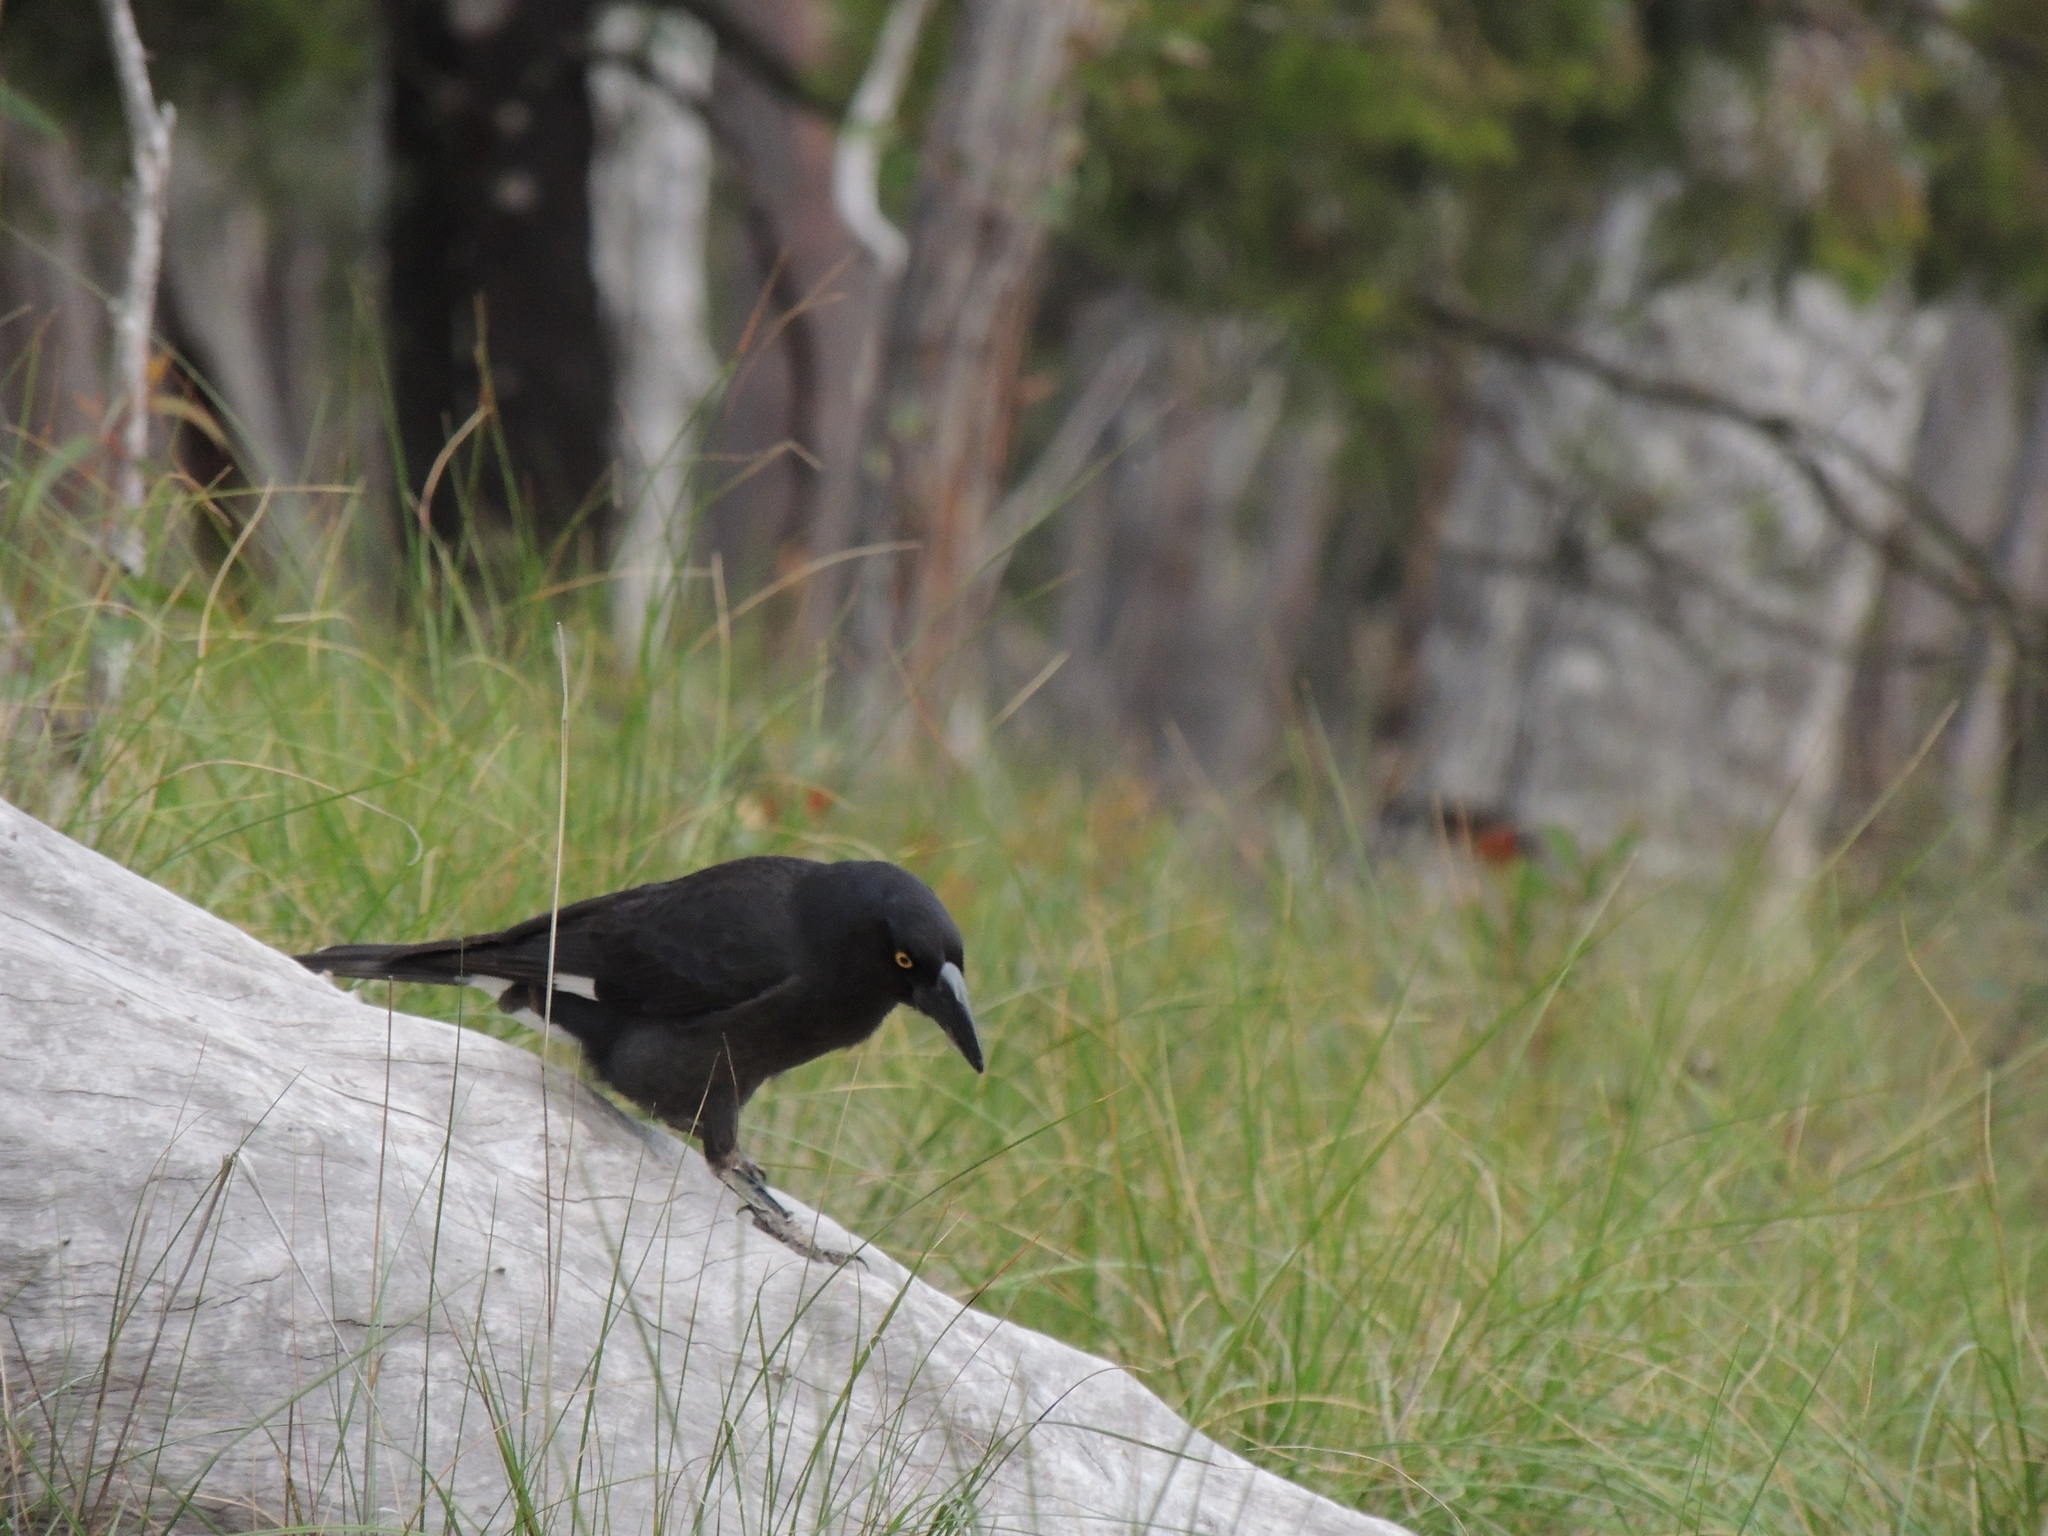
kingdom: Animalia
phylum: Chordata
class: Aves
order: Passeriformes
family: Cracticidae
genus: Strepera
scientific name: Strepera graculina
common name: Pied currawong
